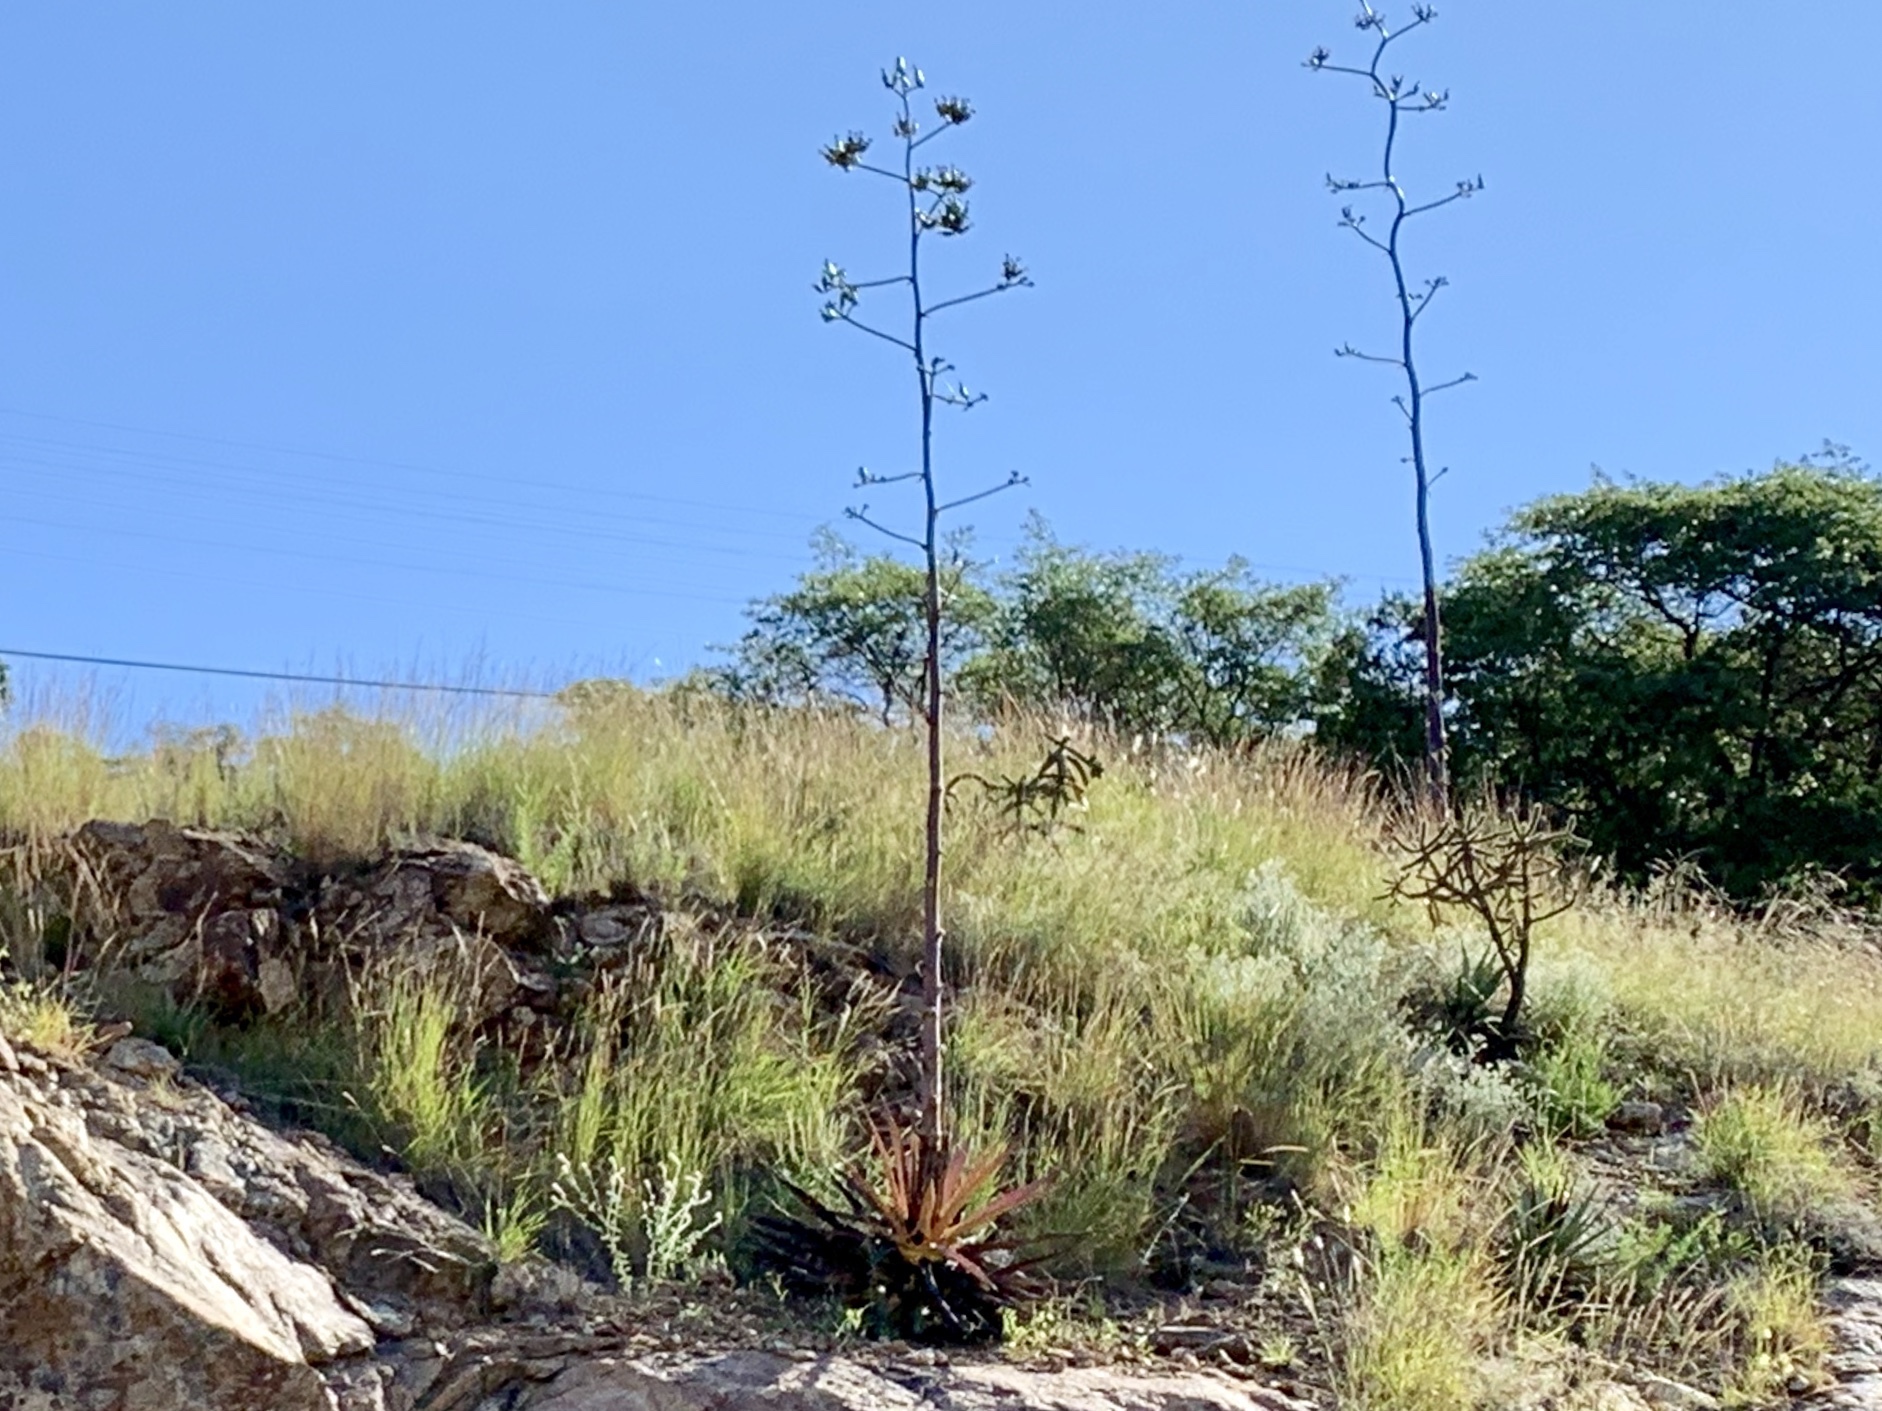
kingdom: Plantae
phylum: Tracheophyta
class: Liliopsida
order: Asparagales
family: Asparagaceae
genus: Agave
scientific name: Agave palmeri
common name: Palmer agave
